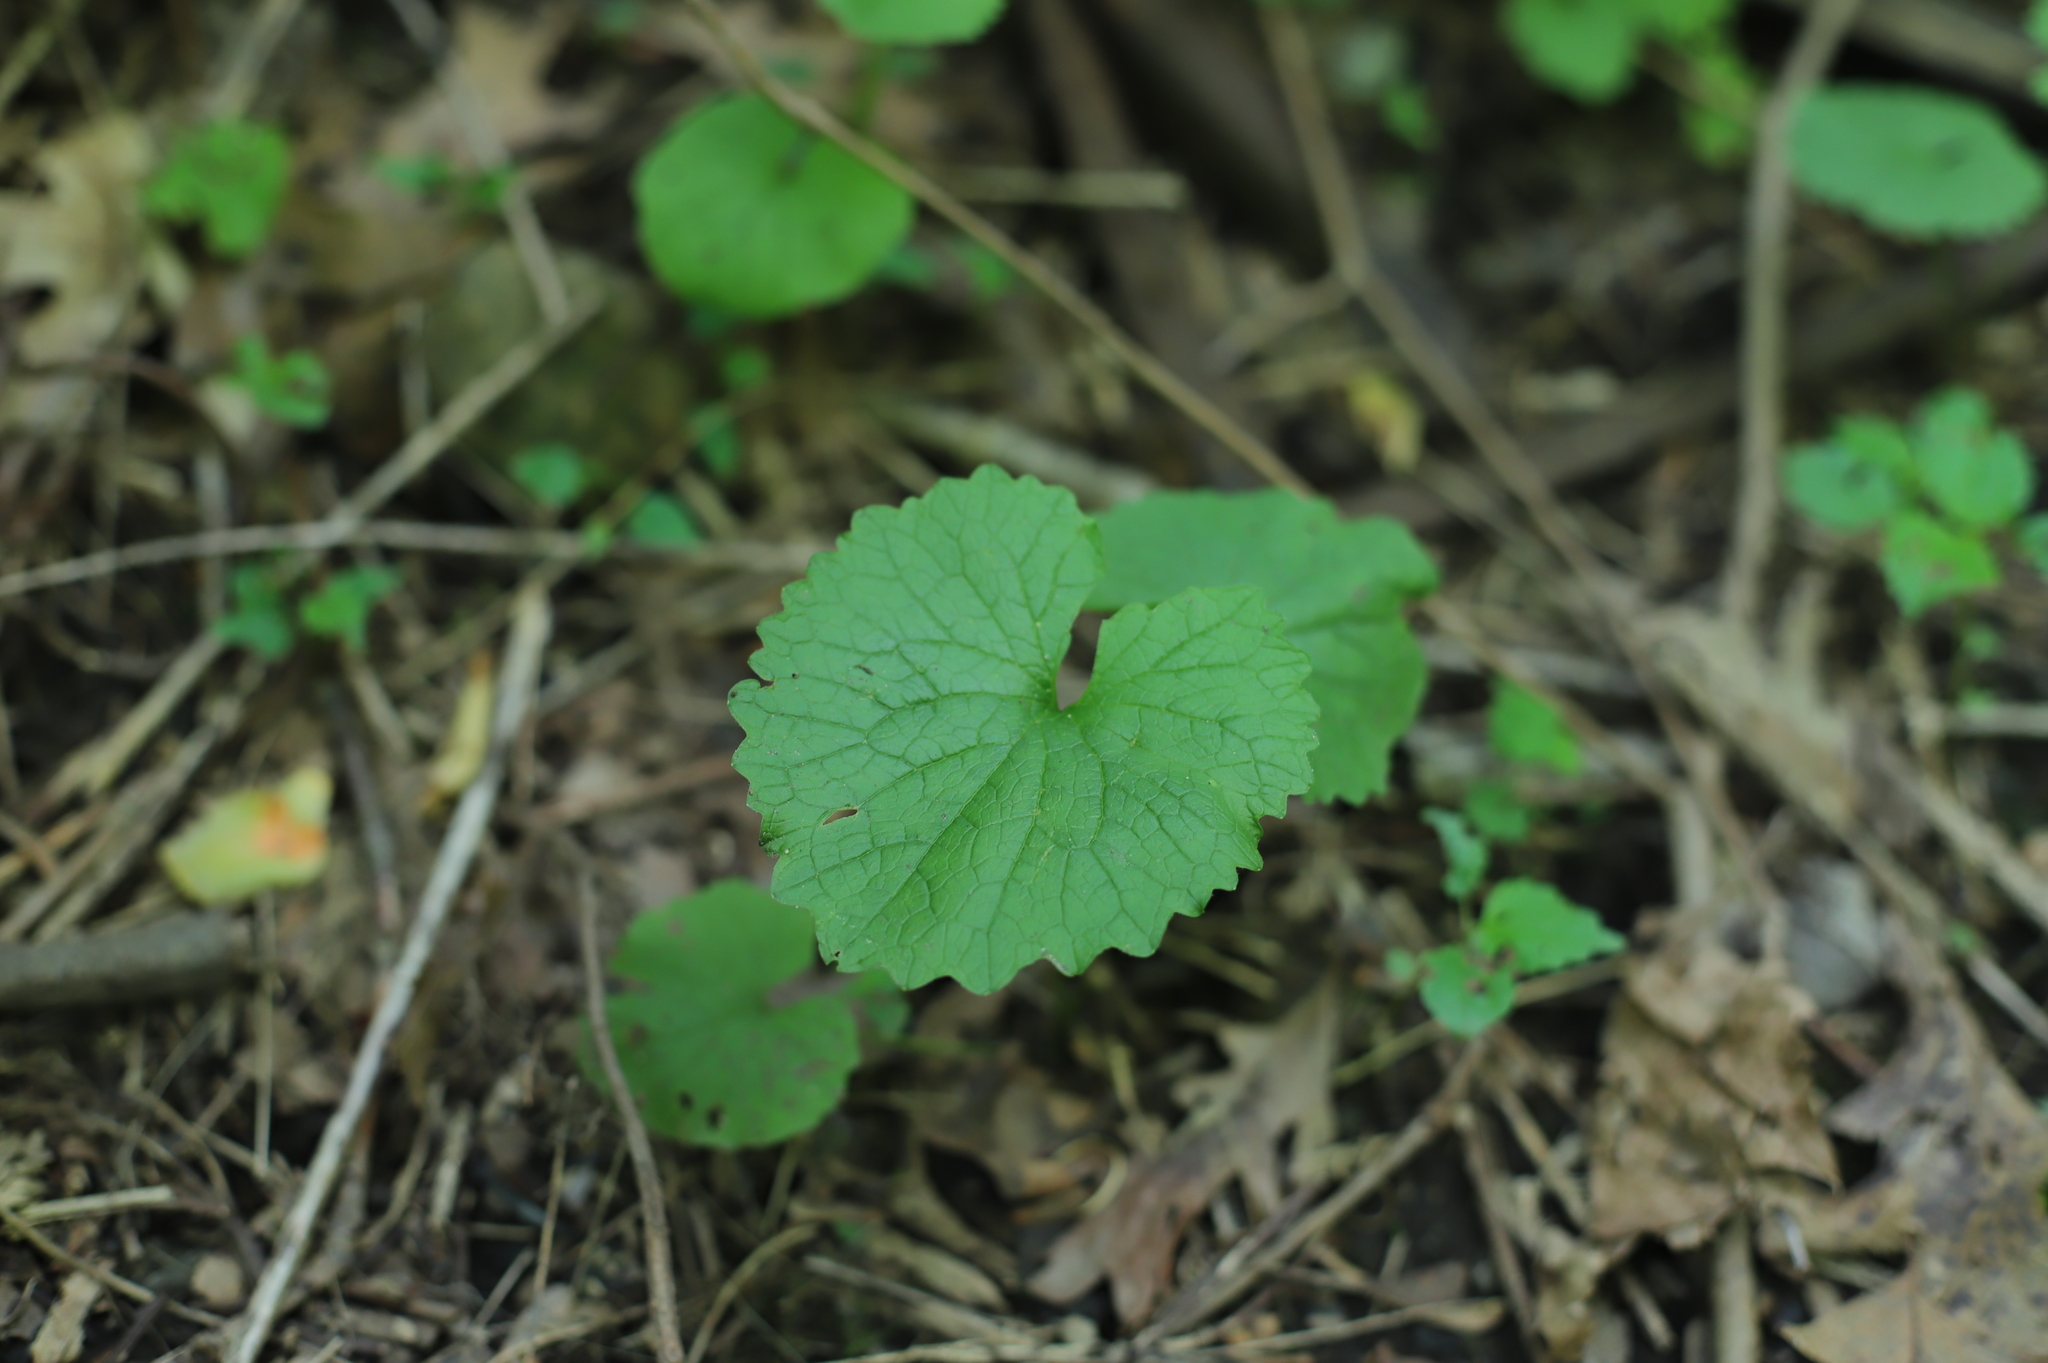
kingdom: Plantae
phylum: Tracheophyta
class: Magnoliopsida
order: Brassicales
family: Brassicaceae
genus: Alliaria
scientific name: Alliaria petiolata
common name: Garlic mustard
